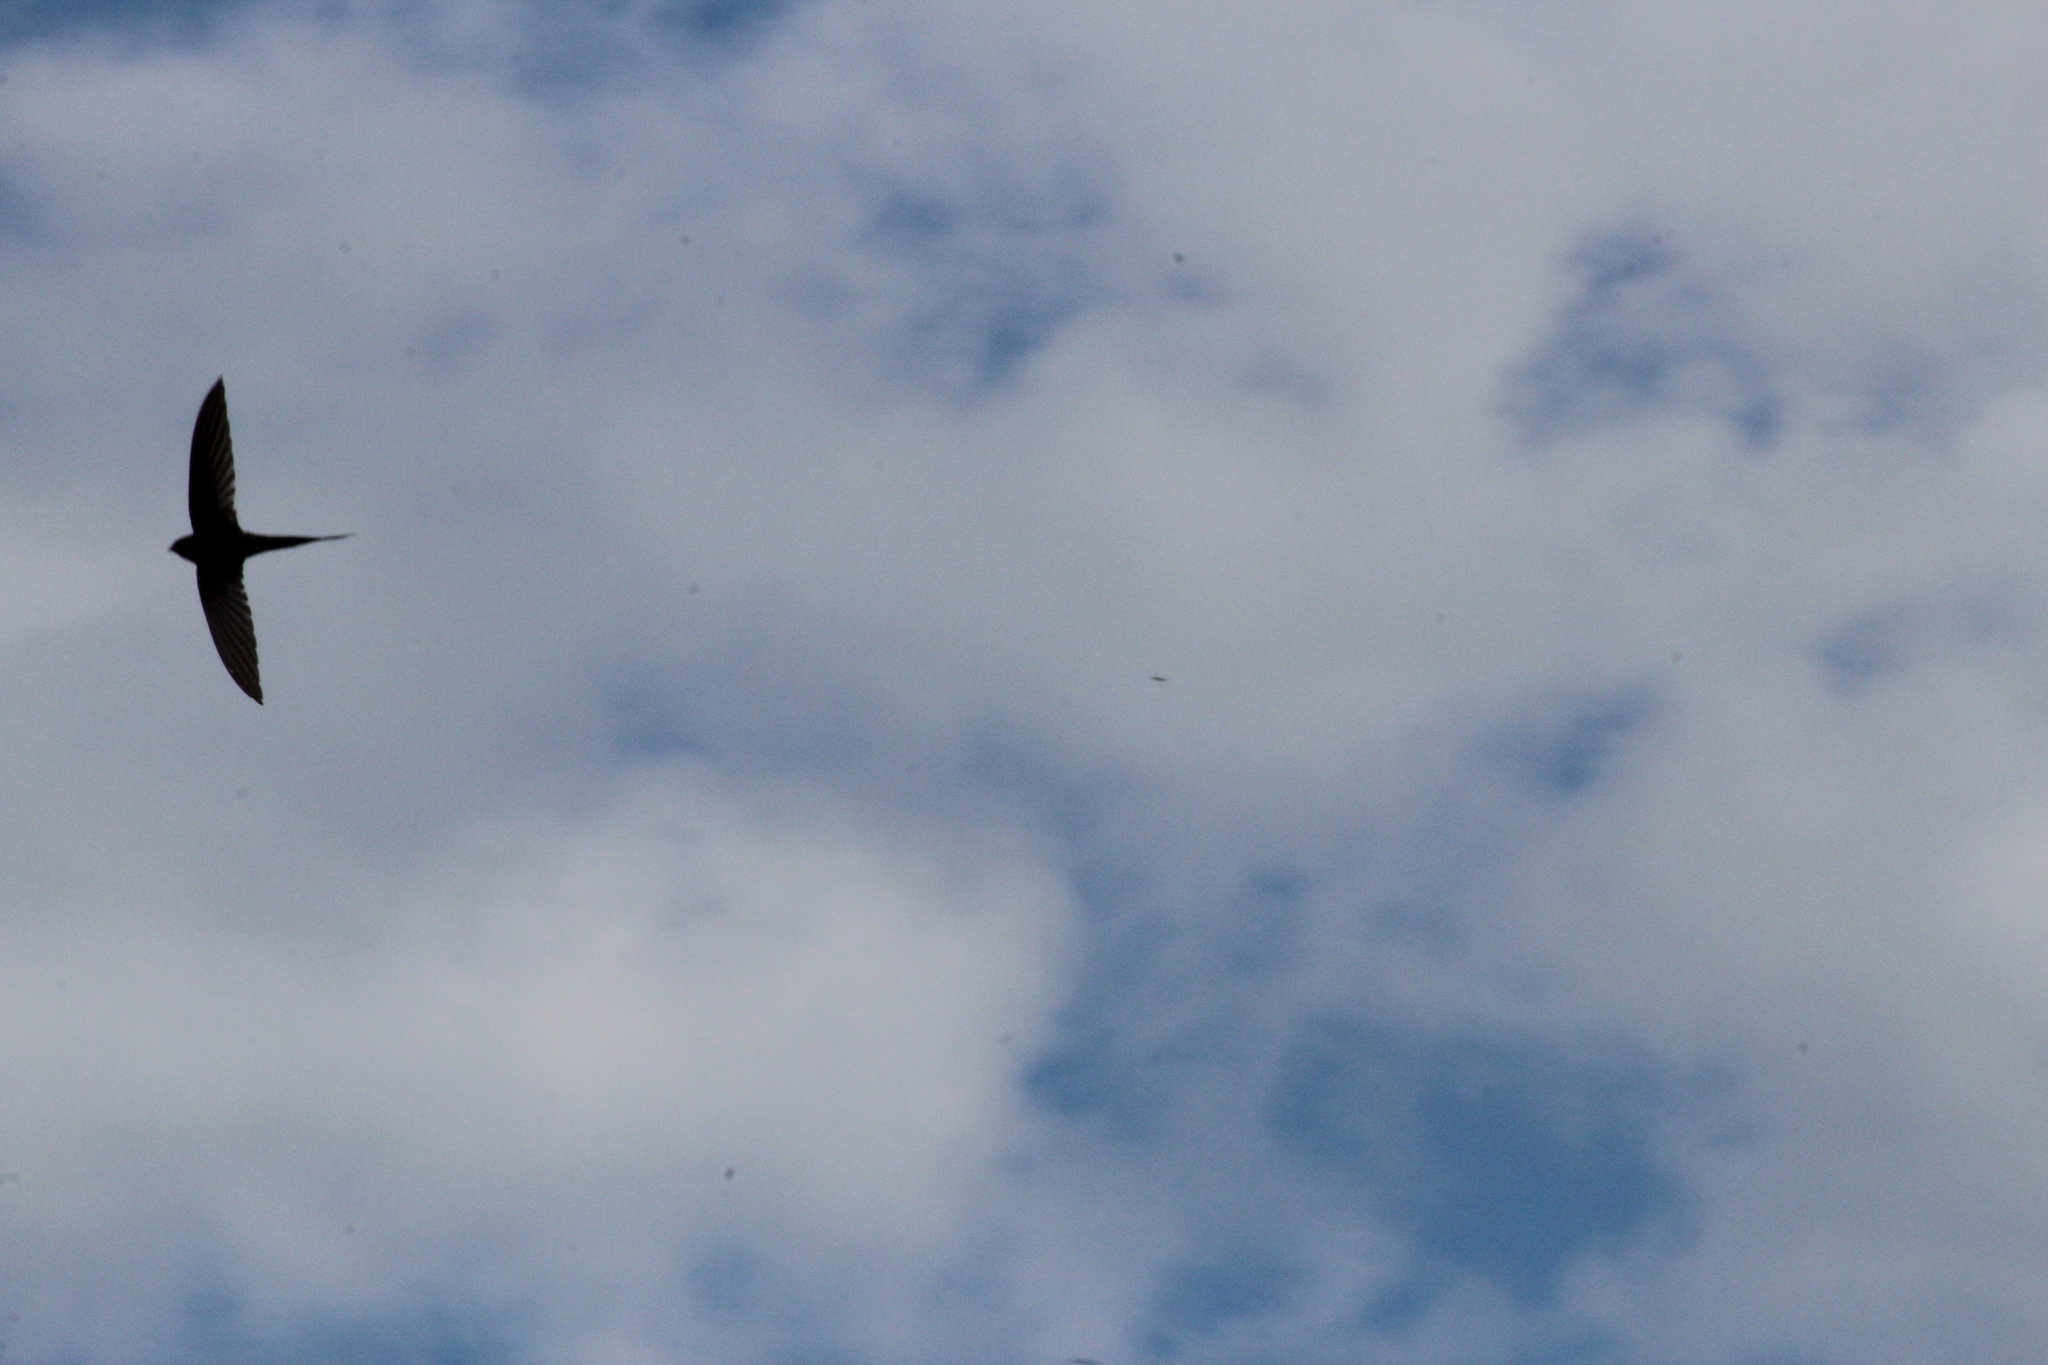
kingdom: Animalia
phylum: Chordata
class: Aves
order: Apodiformes
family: Apodidae
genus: Cypsiurus
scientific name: Cypsiurus parvus
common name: African palm swift
